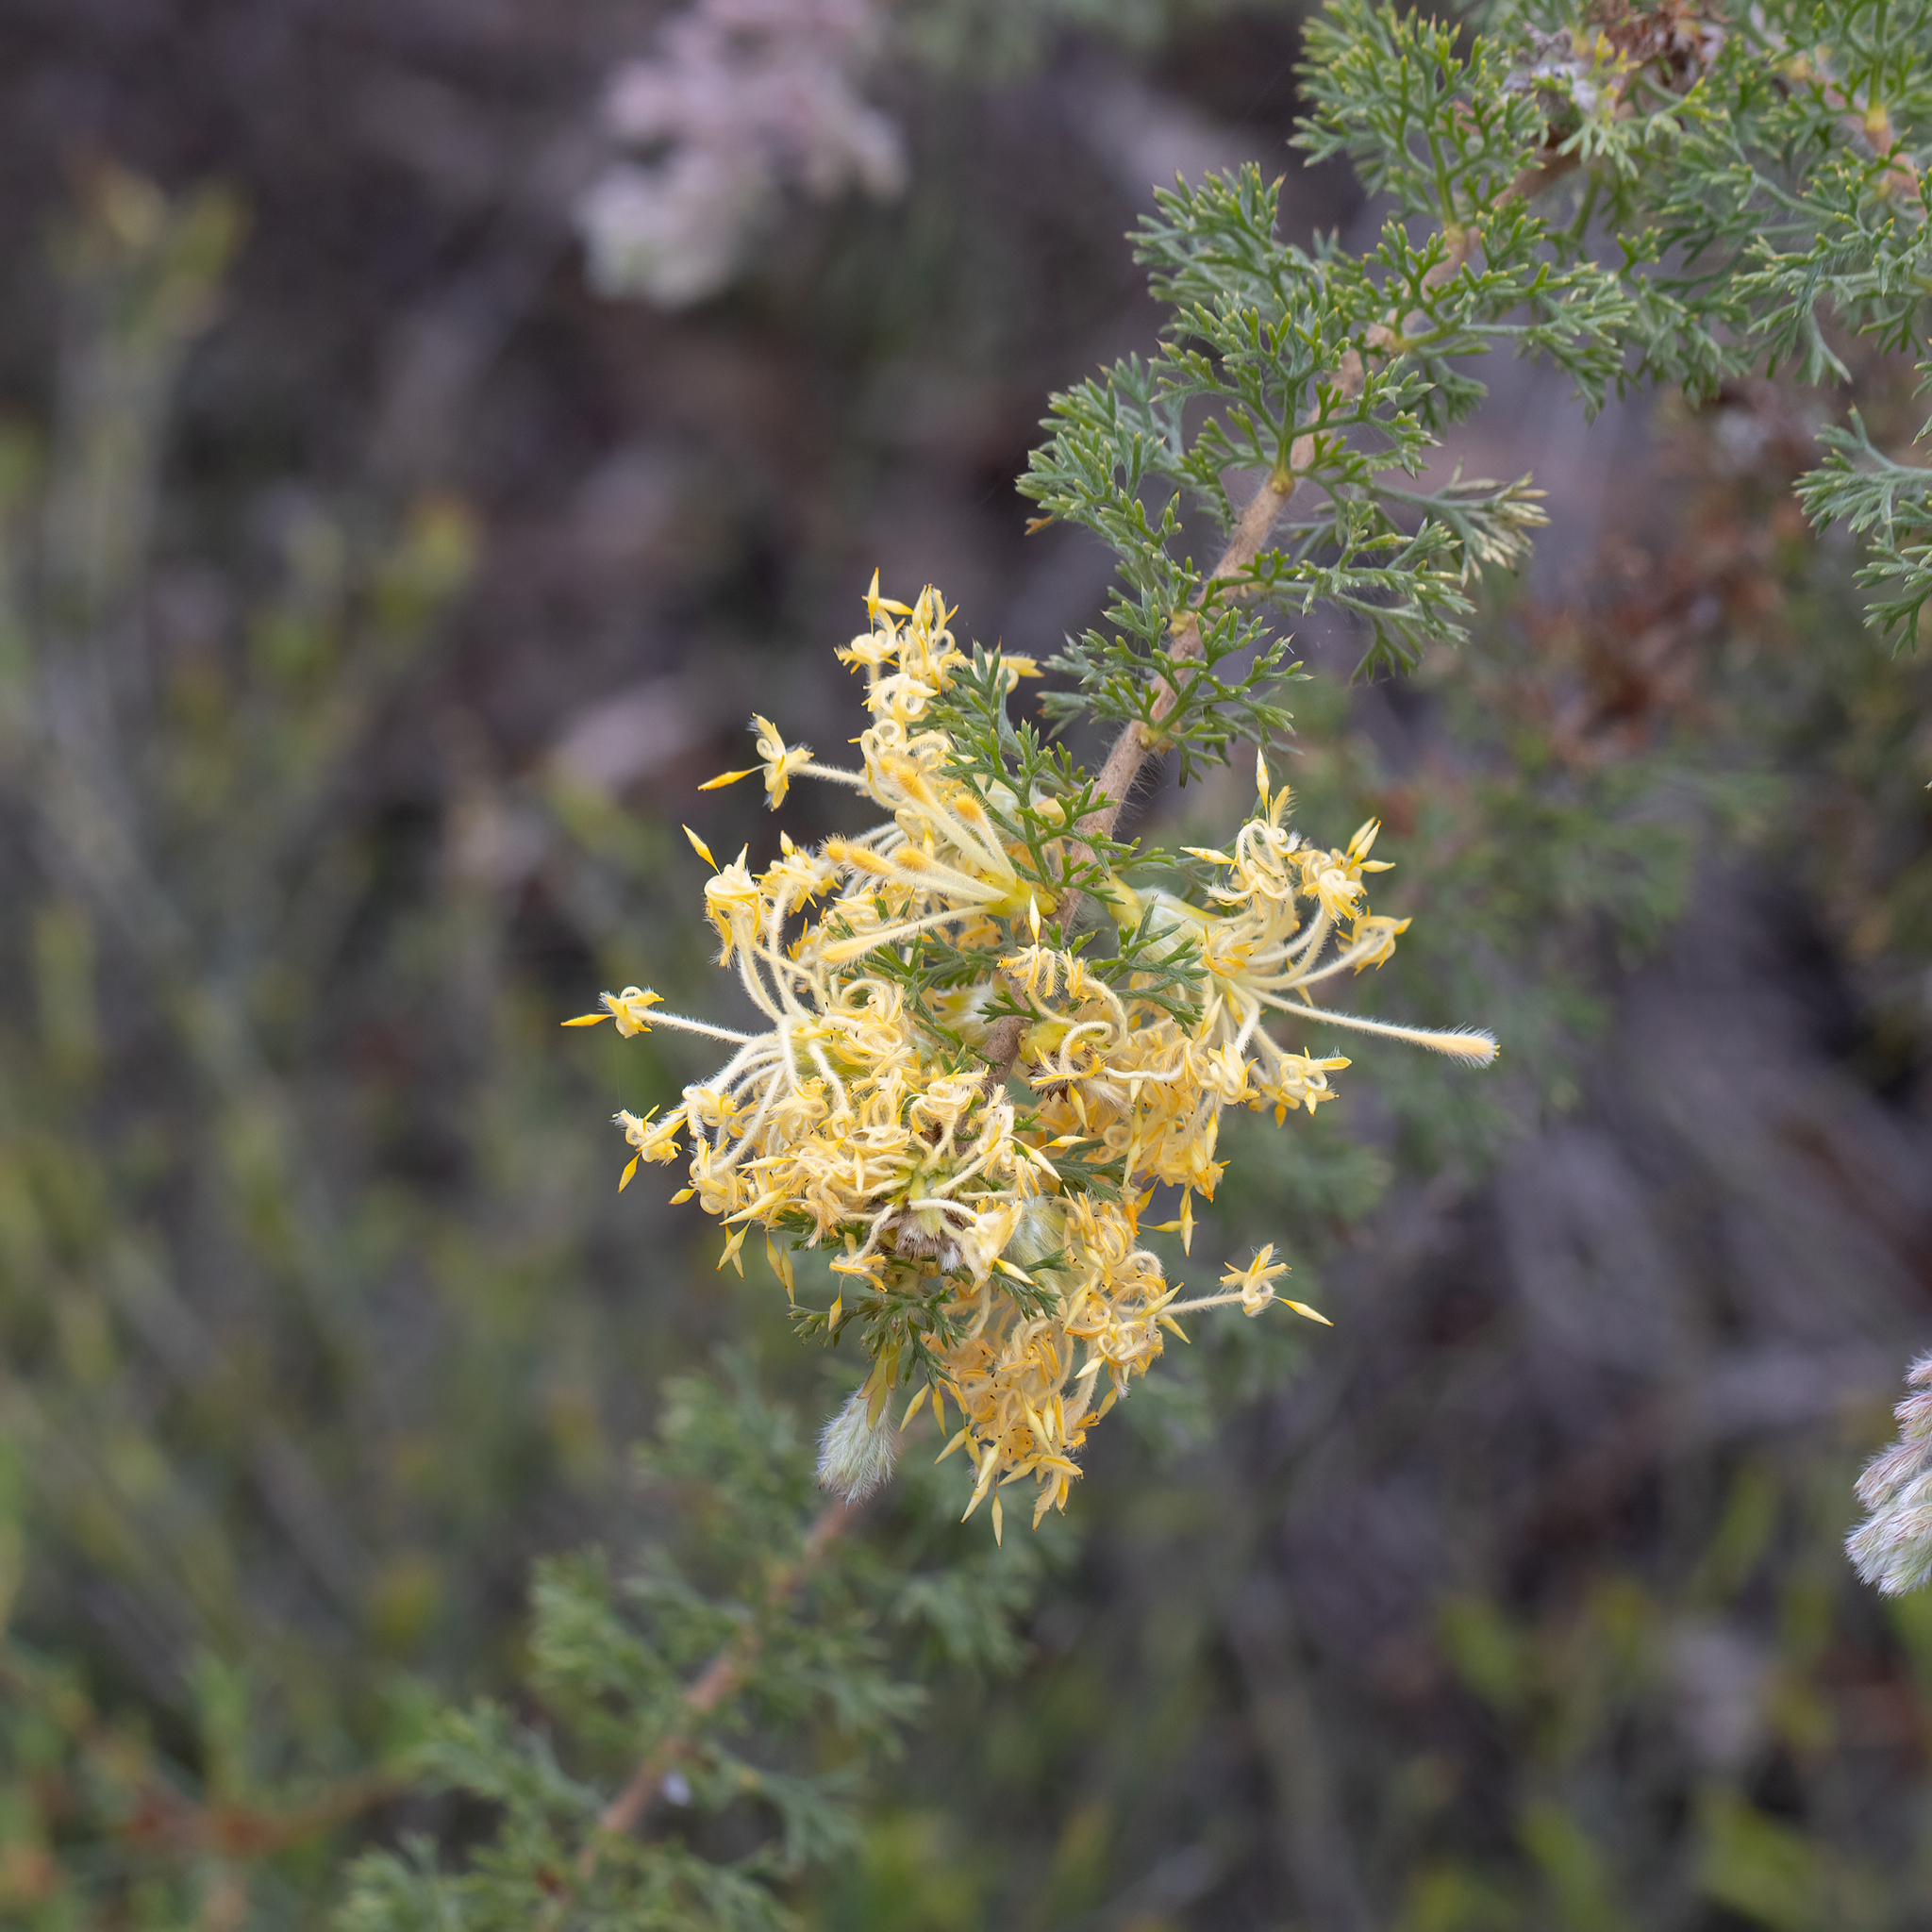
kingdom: Plantae
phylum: Tracheophyta
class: Magnoliopsida
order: Proteales
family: Proteaceae
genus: Petrophile
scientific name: Petrophile serruriae
